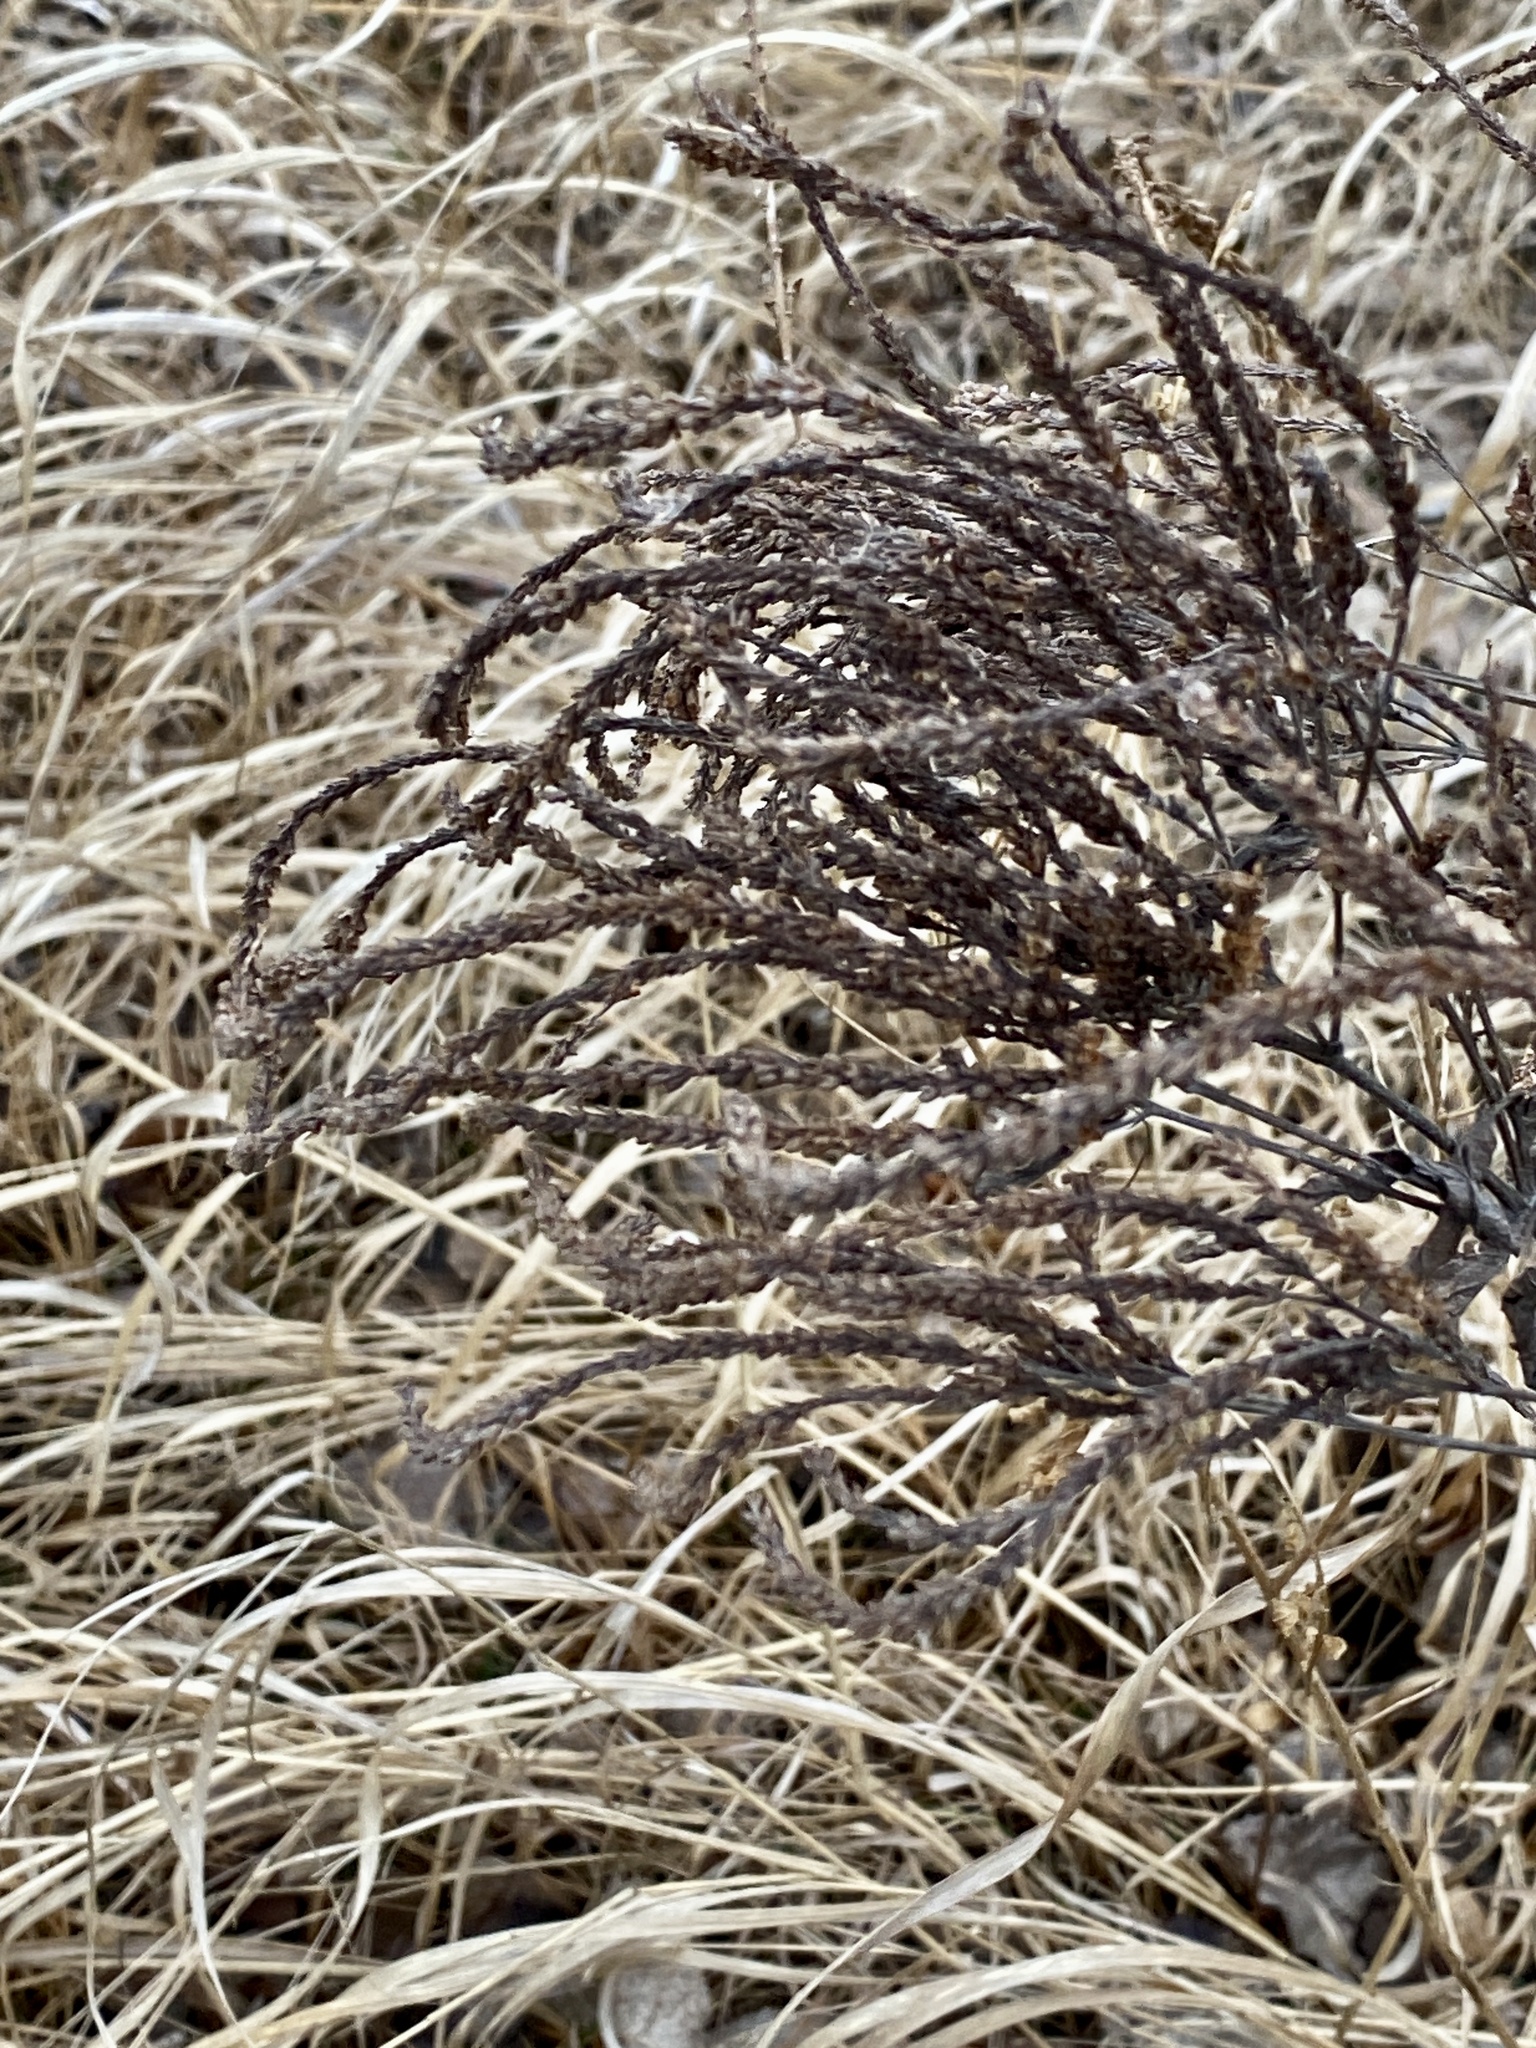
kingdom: Plantae
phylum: Tracheophyta
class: Magnoliopsida
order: Lamiales
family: Verbenaceae
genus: Verbena
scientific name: Verbena hastata
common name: American blue vervain
